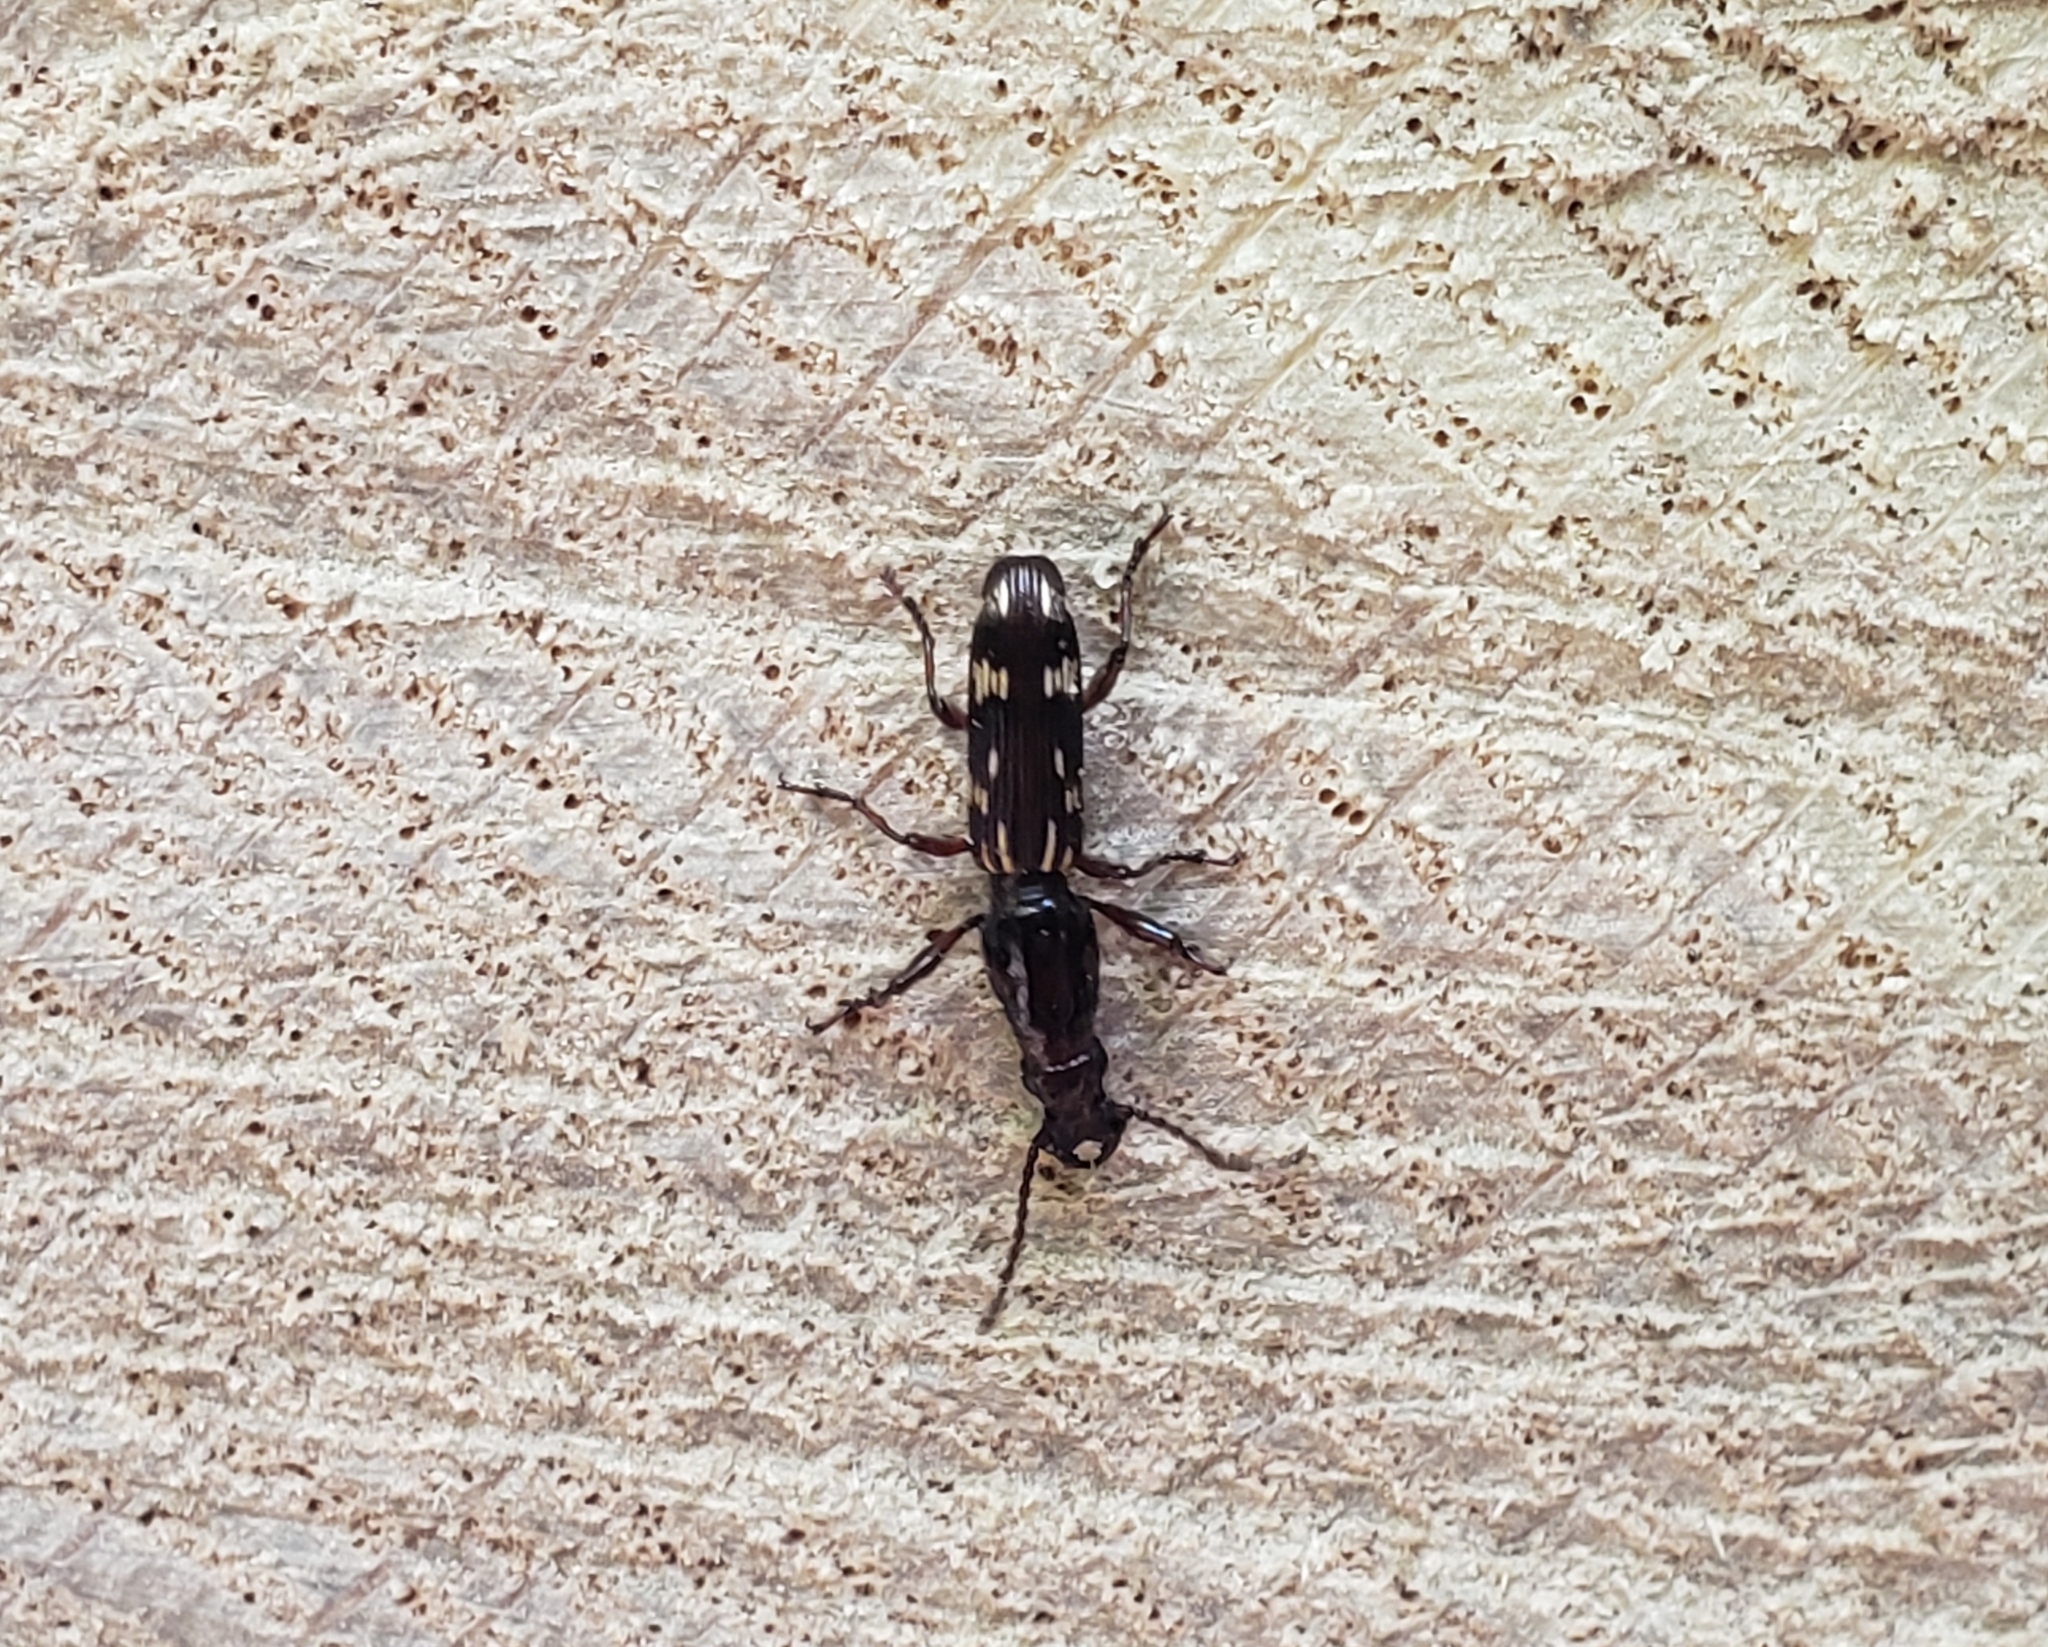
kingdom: Animalia
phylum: Arthropoda
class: Insecta
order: Coleoptera
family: Brentidae
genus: Arrenodes
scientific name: Arrenodes minutus
